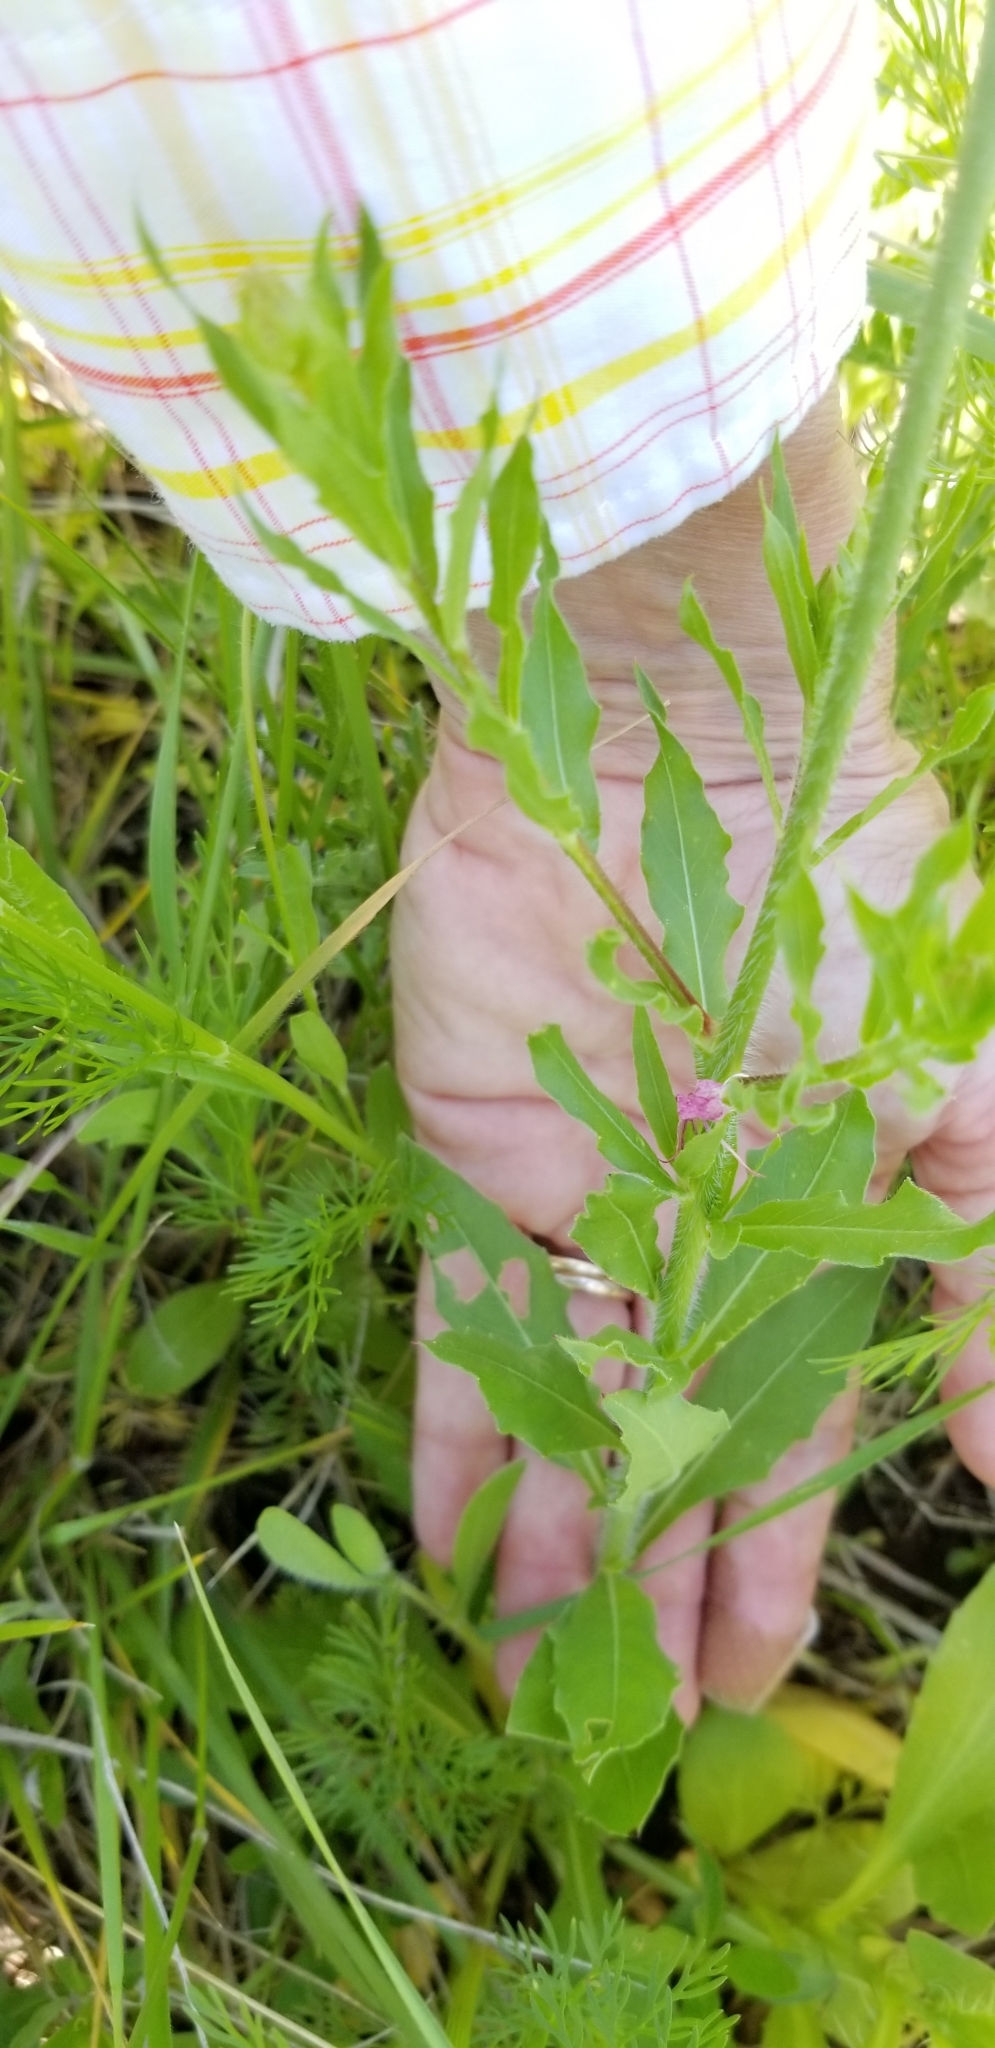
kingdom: Plantae
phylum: Tracheophyta
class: Magnoliopsida
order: Myrtales
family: Onagraceae
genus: Oenothera
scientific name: Oenothera suffulta
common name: Kisses
